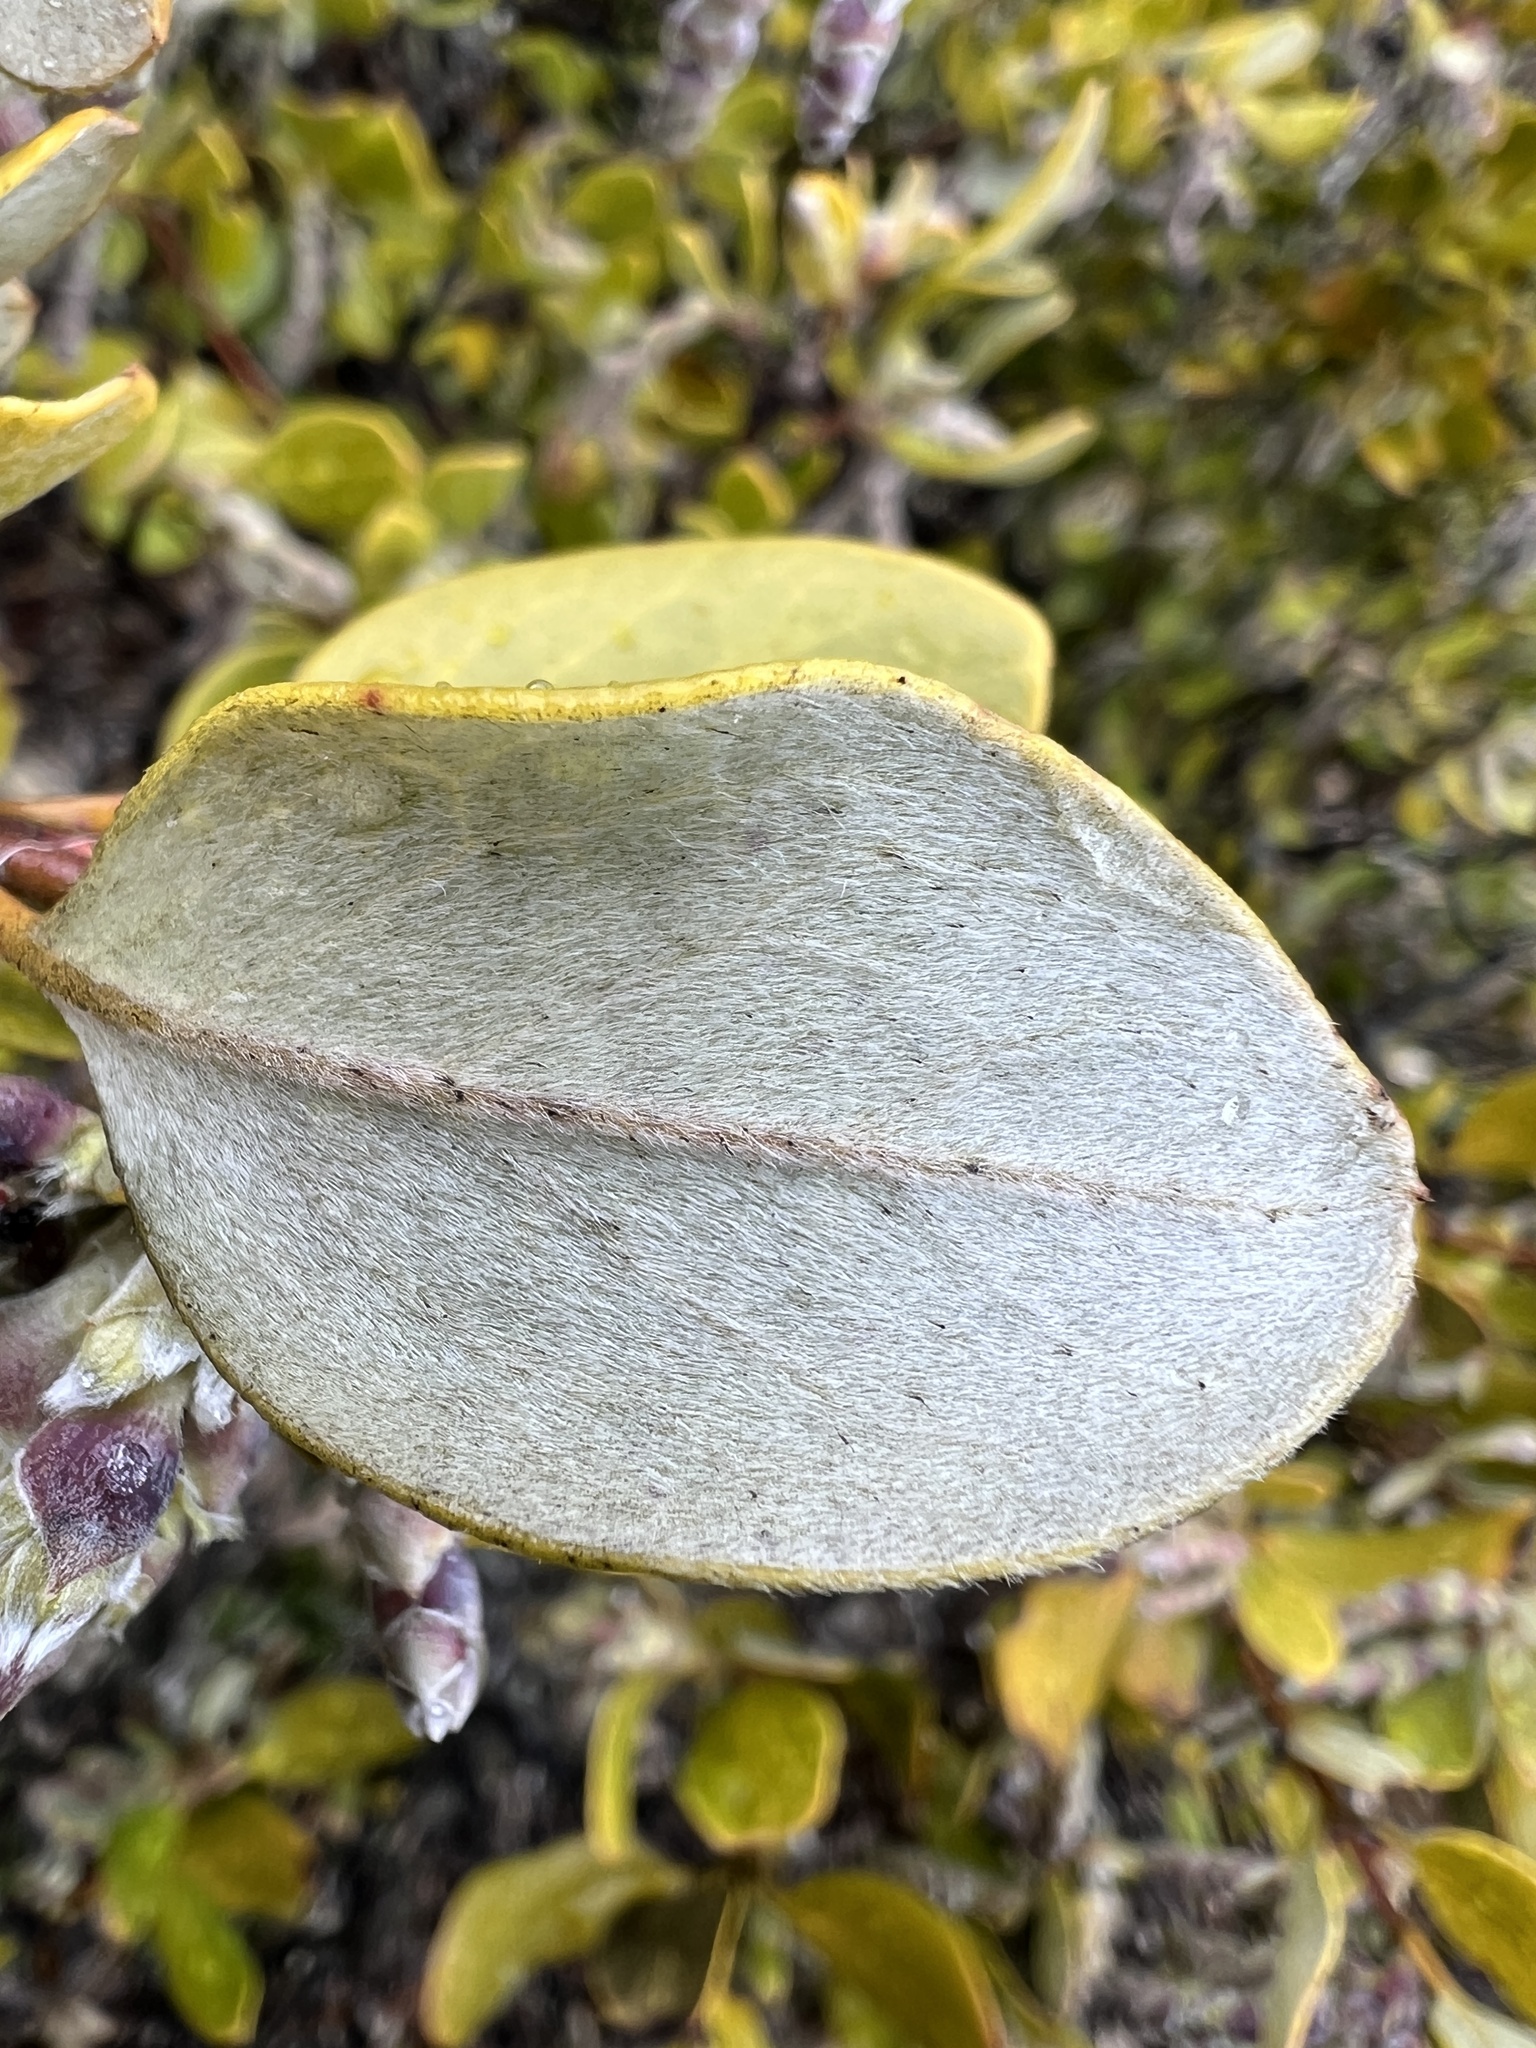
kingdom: Plantae
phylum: Tracheophyta
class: Magnoliopsida
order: Garryales
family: Garryaceae
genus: Garrya
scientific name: Garrya buxifolia
